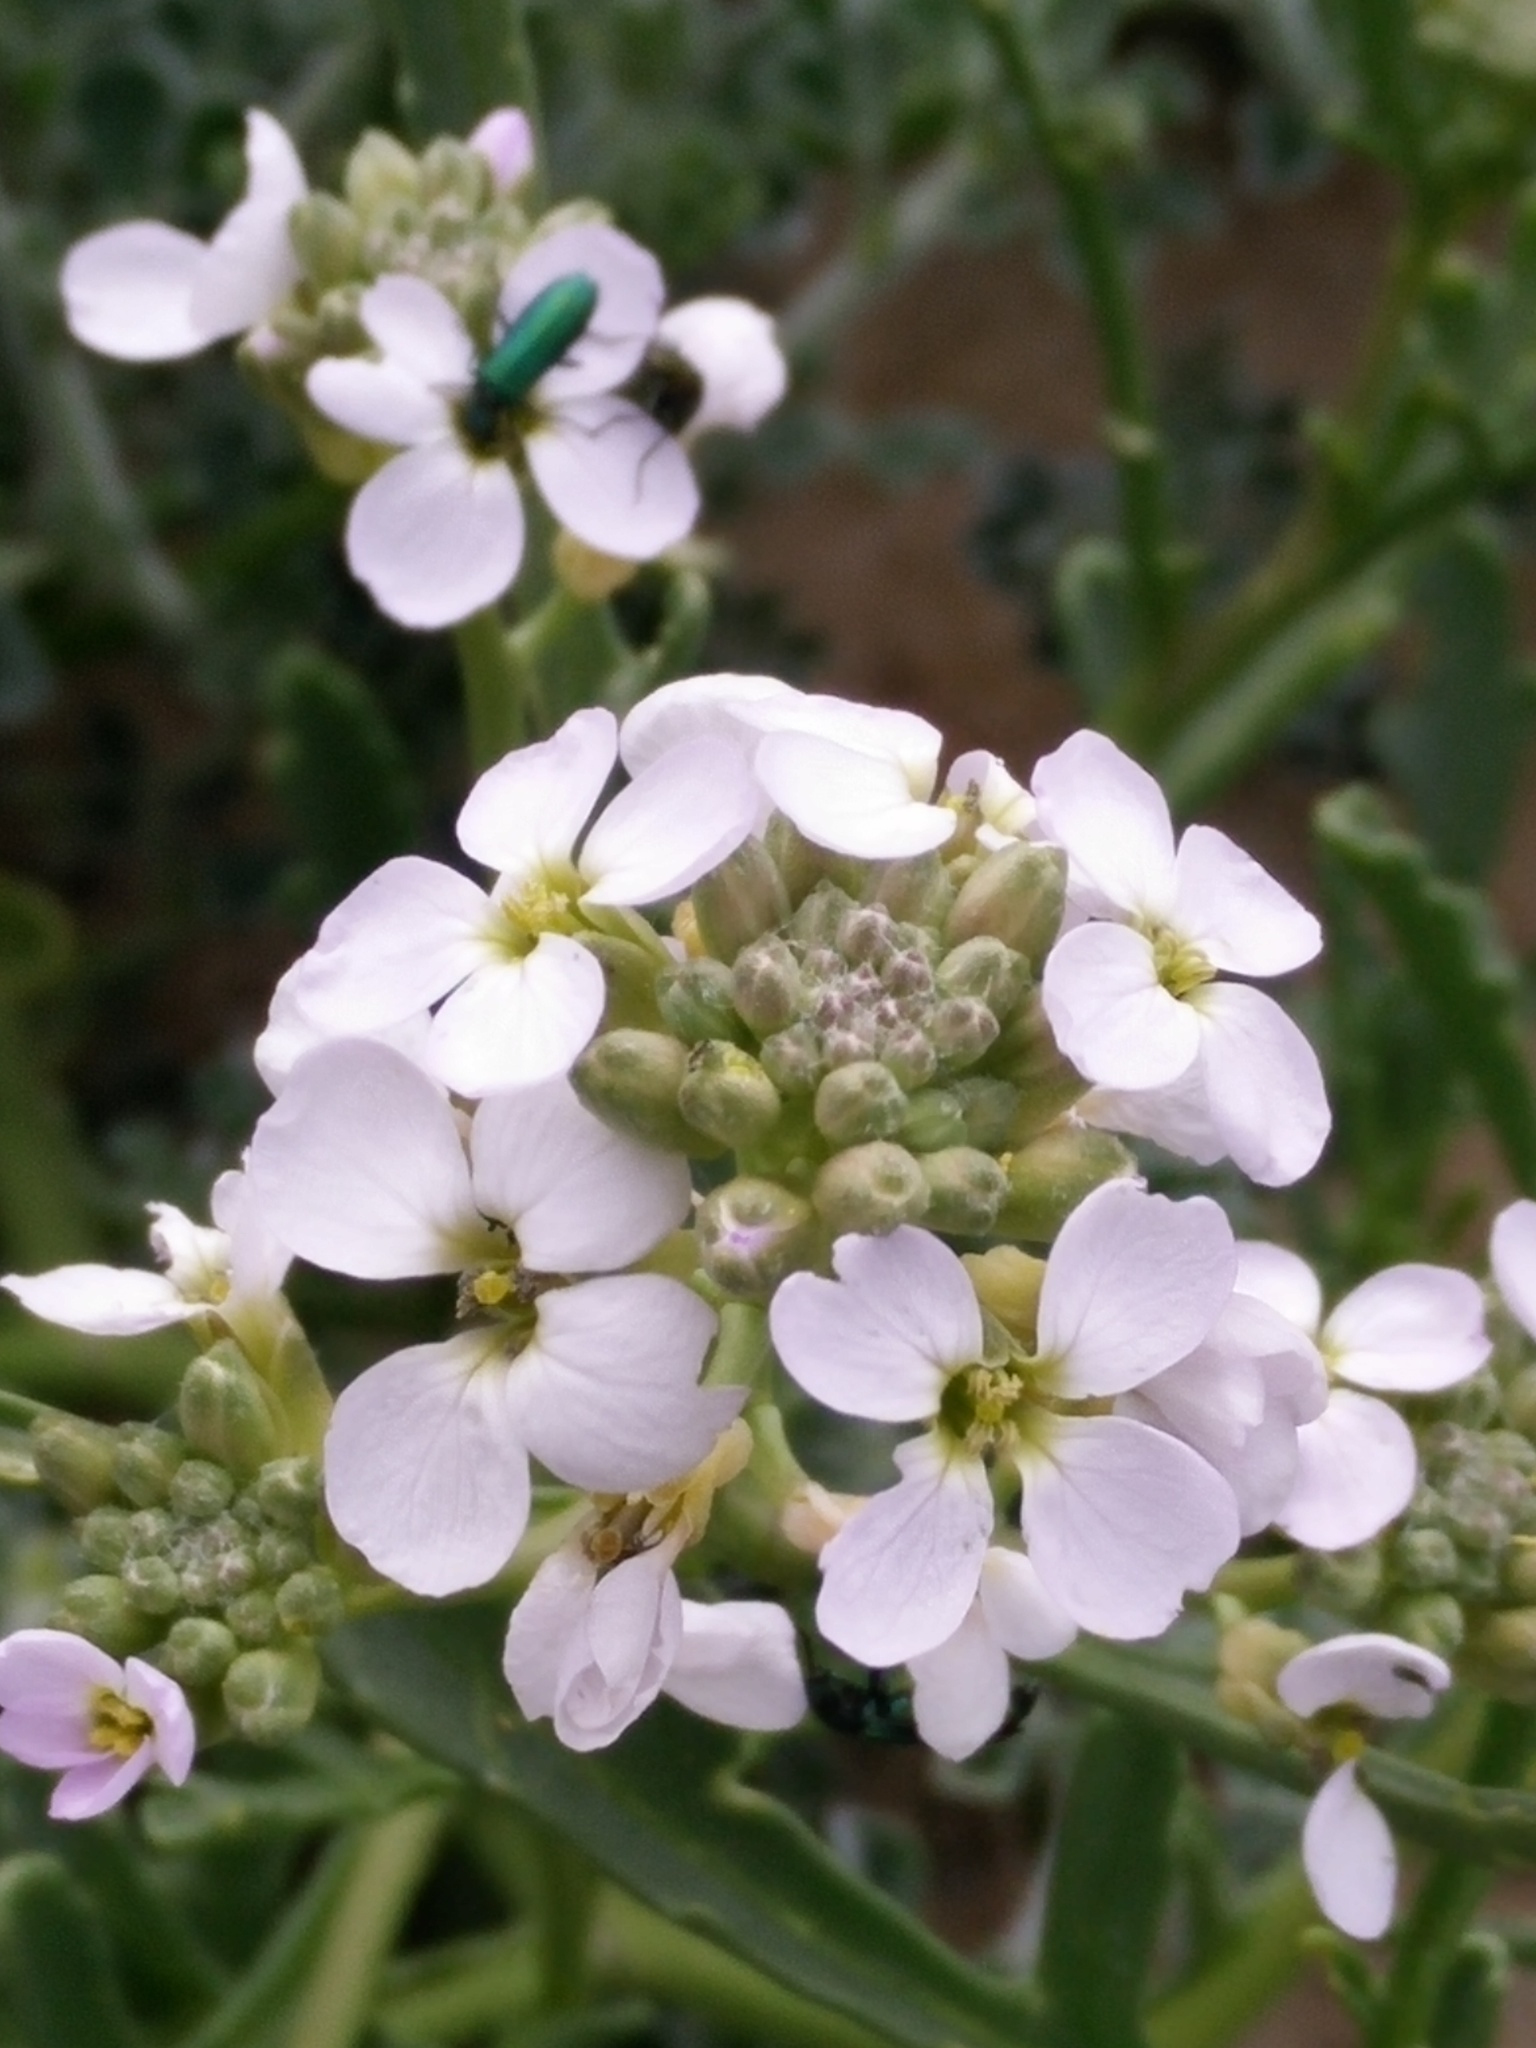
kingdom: Plantae
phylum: Tracheophyta
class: Magnoliopsida
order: Brassicales
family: Brassicaceae
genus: Cakile
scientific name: Cakile maritima
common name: Sea rocket
